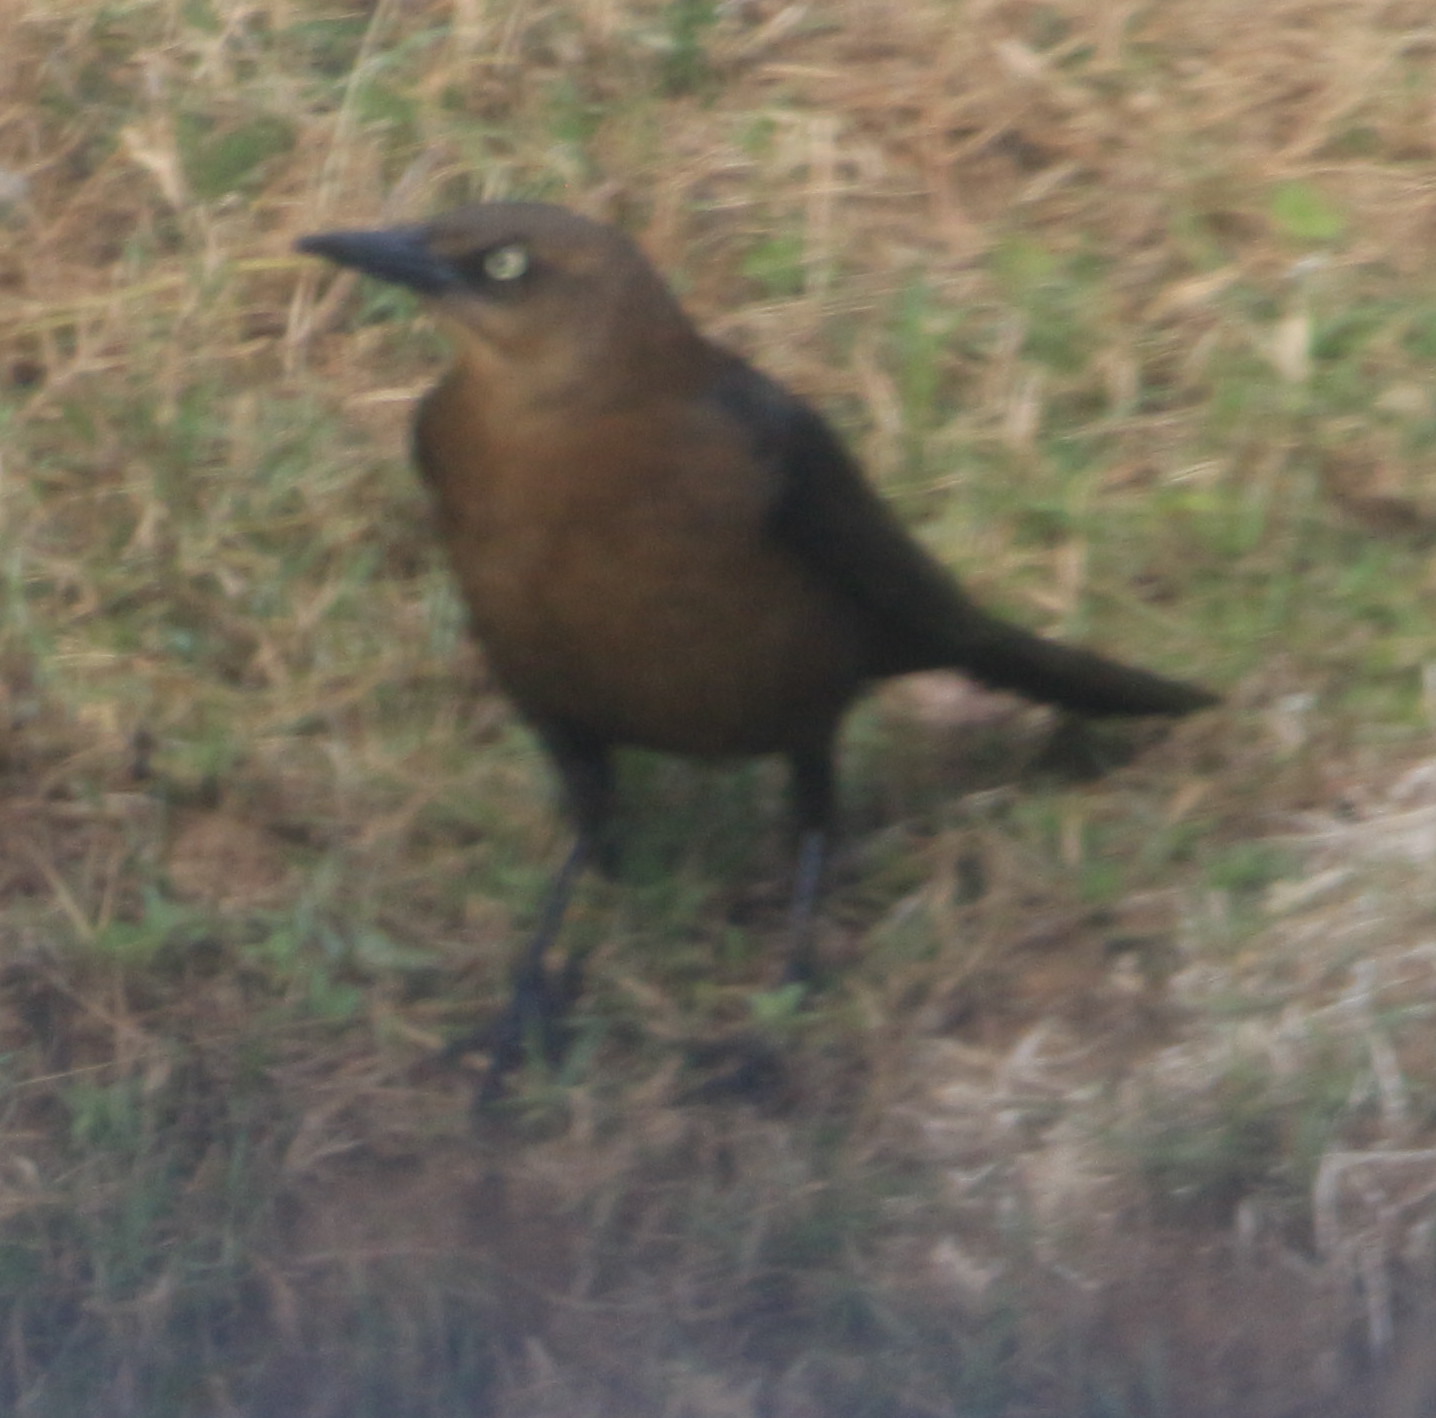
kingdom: Animalia
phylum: Chordata
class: Aves
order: Passeriformes
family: Icteridae
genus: Quiscalus
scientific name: Quiscalus mexicanus
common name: Great-tailed grackle
